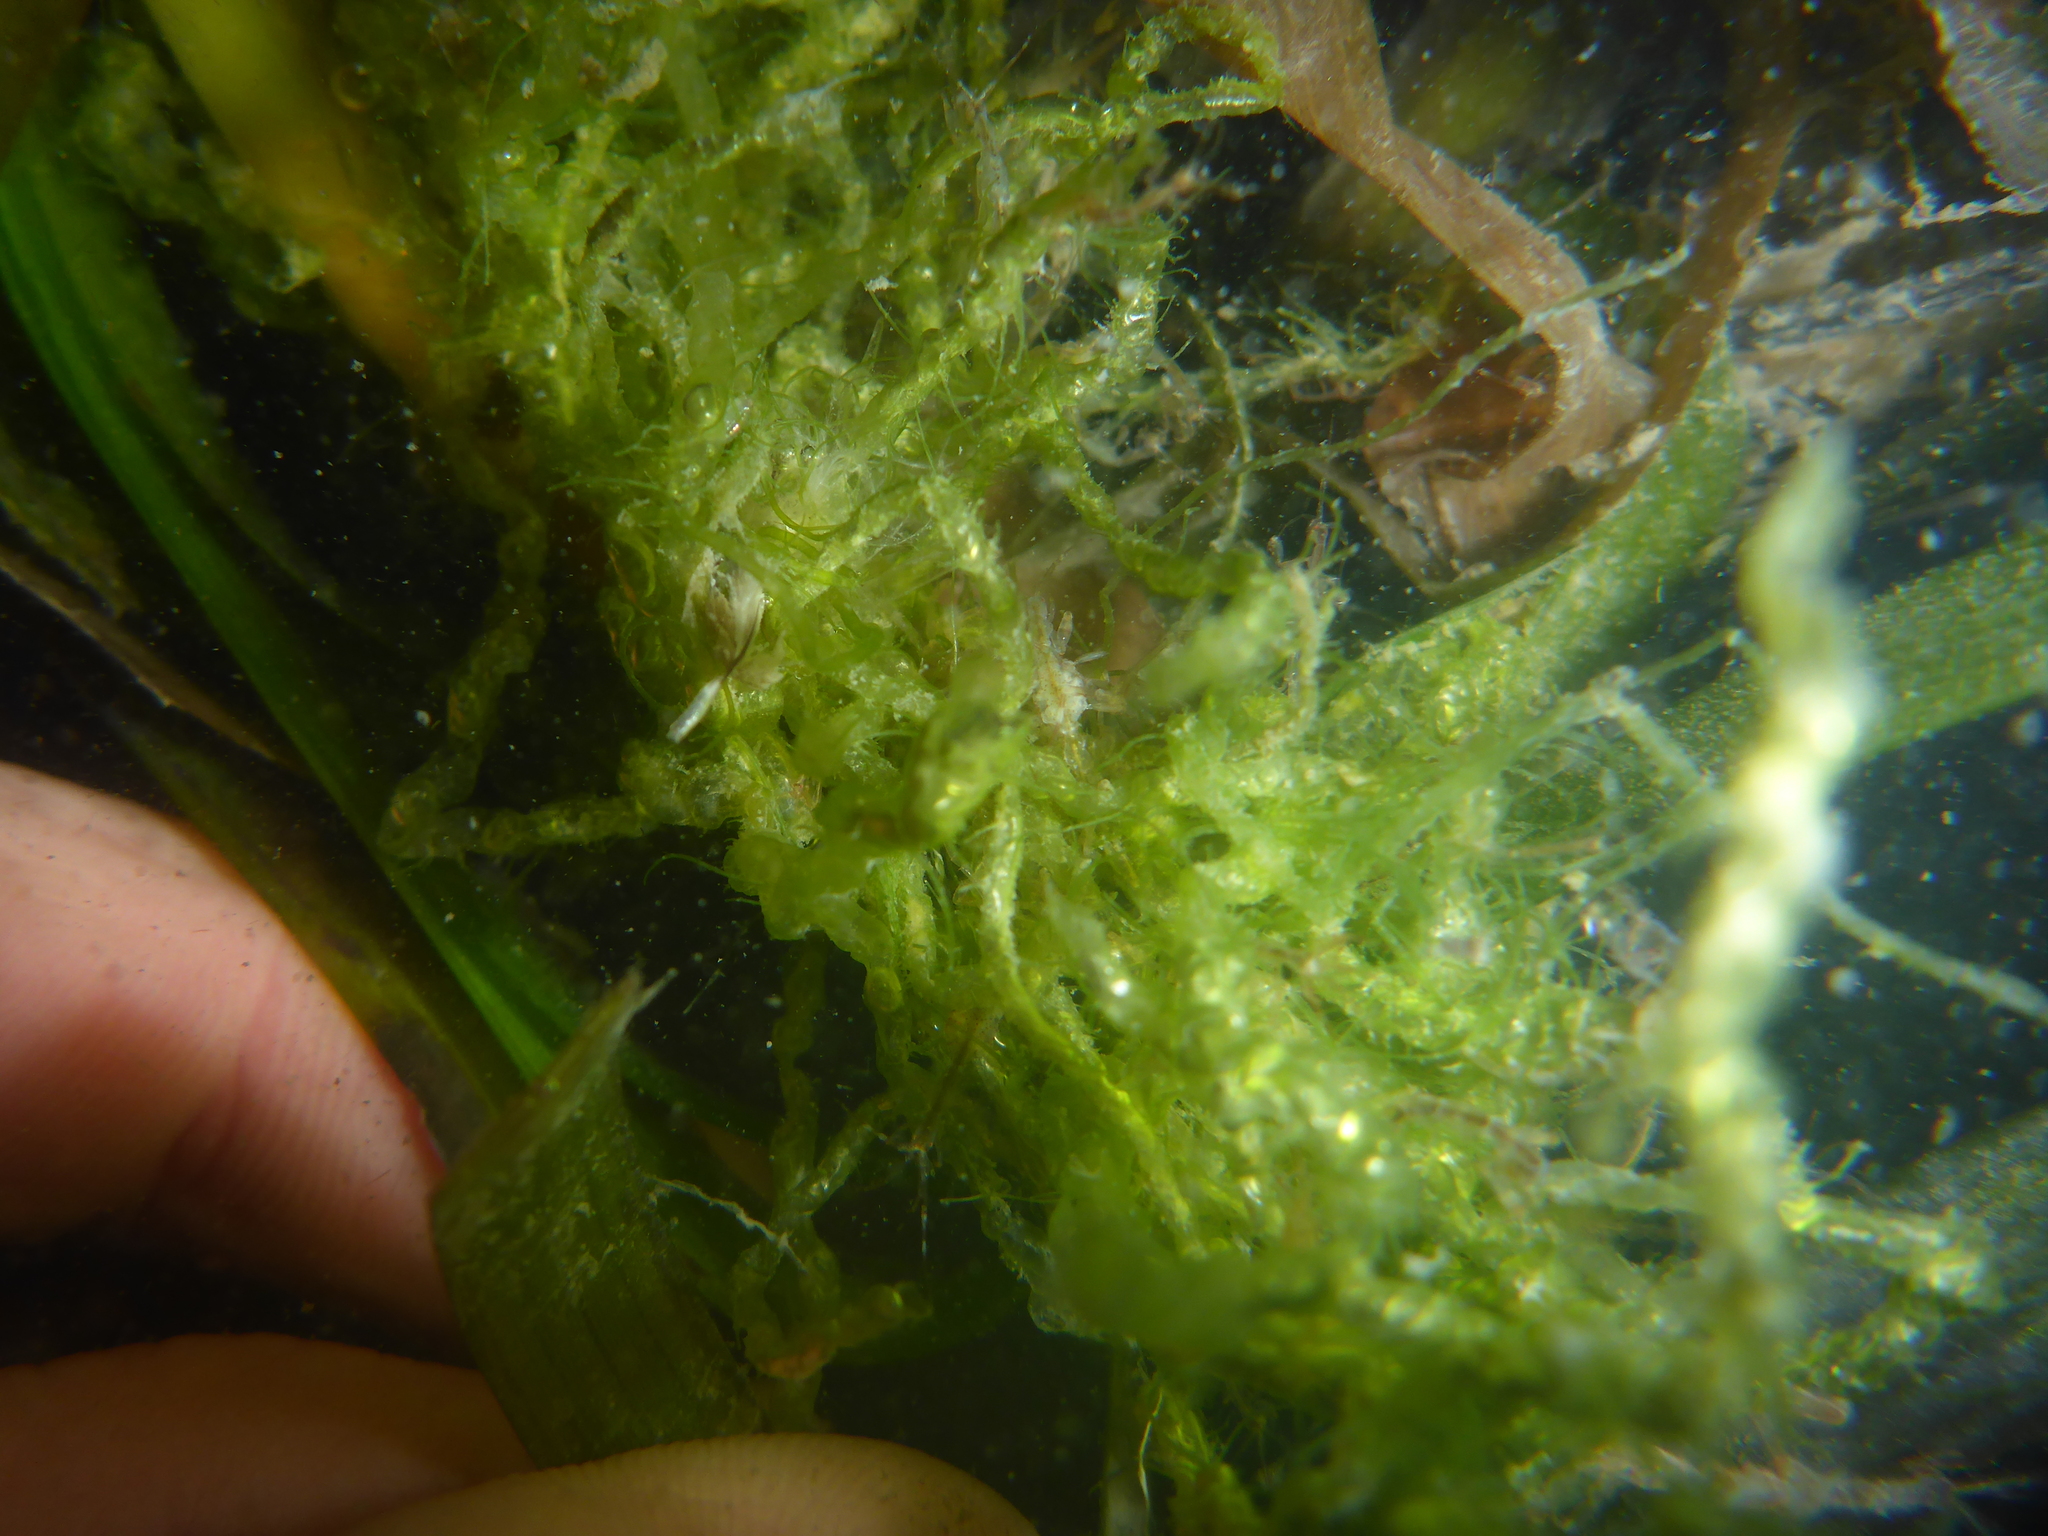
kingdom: Plantae
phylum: Chlorophyta
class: Ulvophyceae
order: Ulvales
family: Ulvaceae
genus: Ulva
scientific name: Ulva intestinalis
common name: Gut weed
